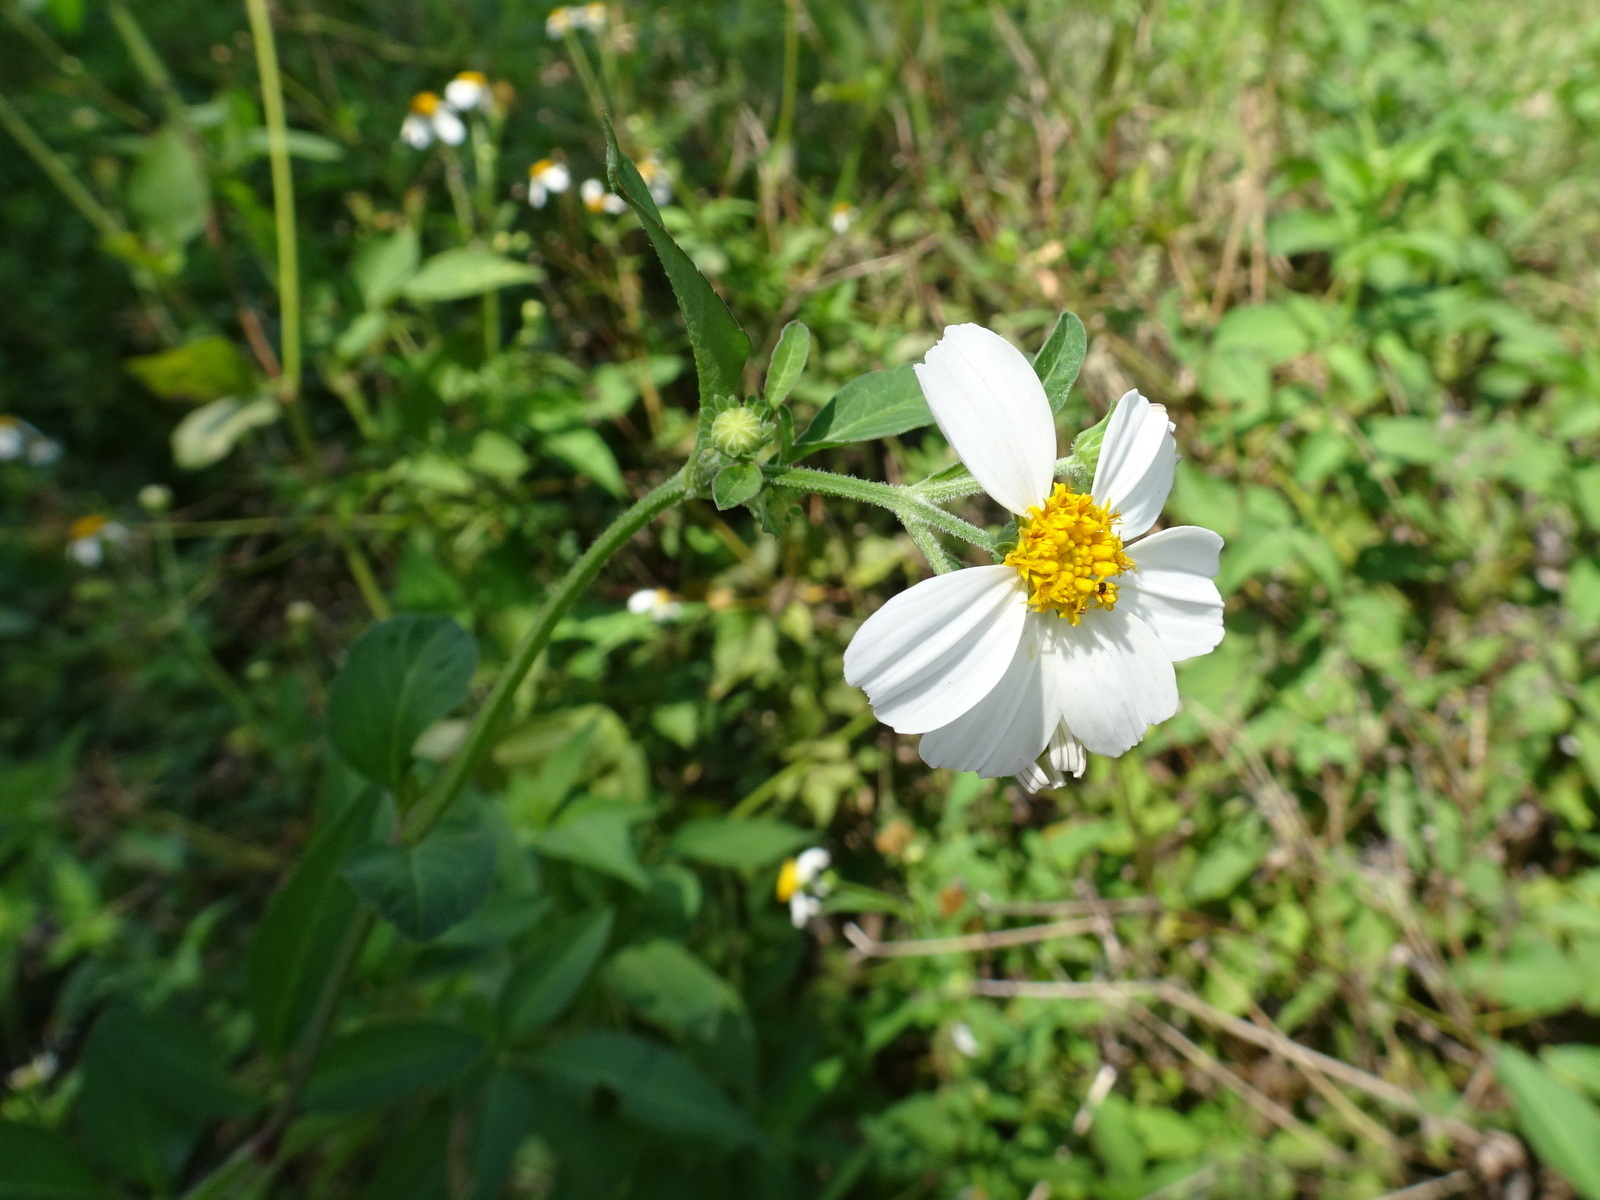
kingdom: Plantae
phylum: Tracheophyta
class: Magnoliopsida
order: Asterales
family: Asteraceae
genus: Bidens
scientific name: Bidens alba
